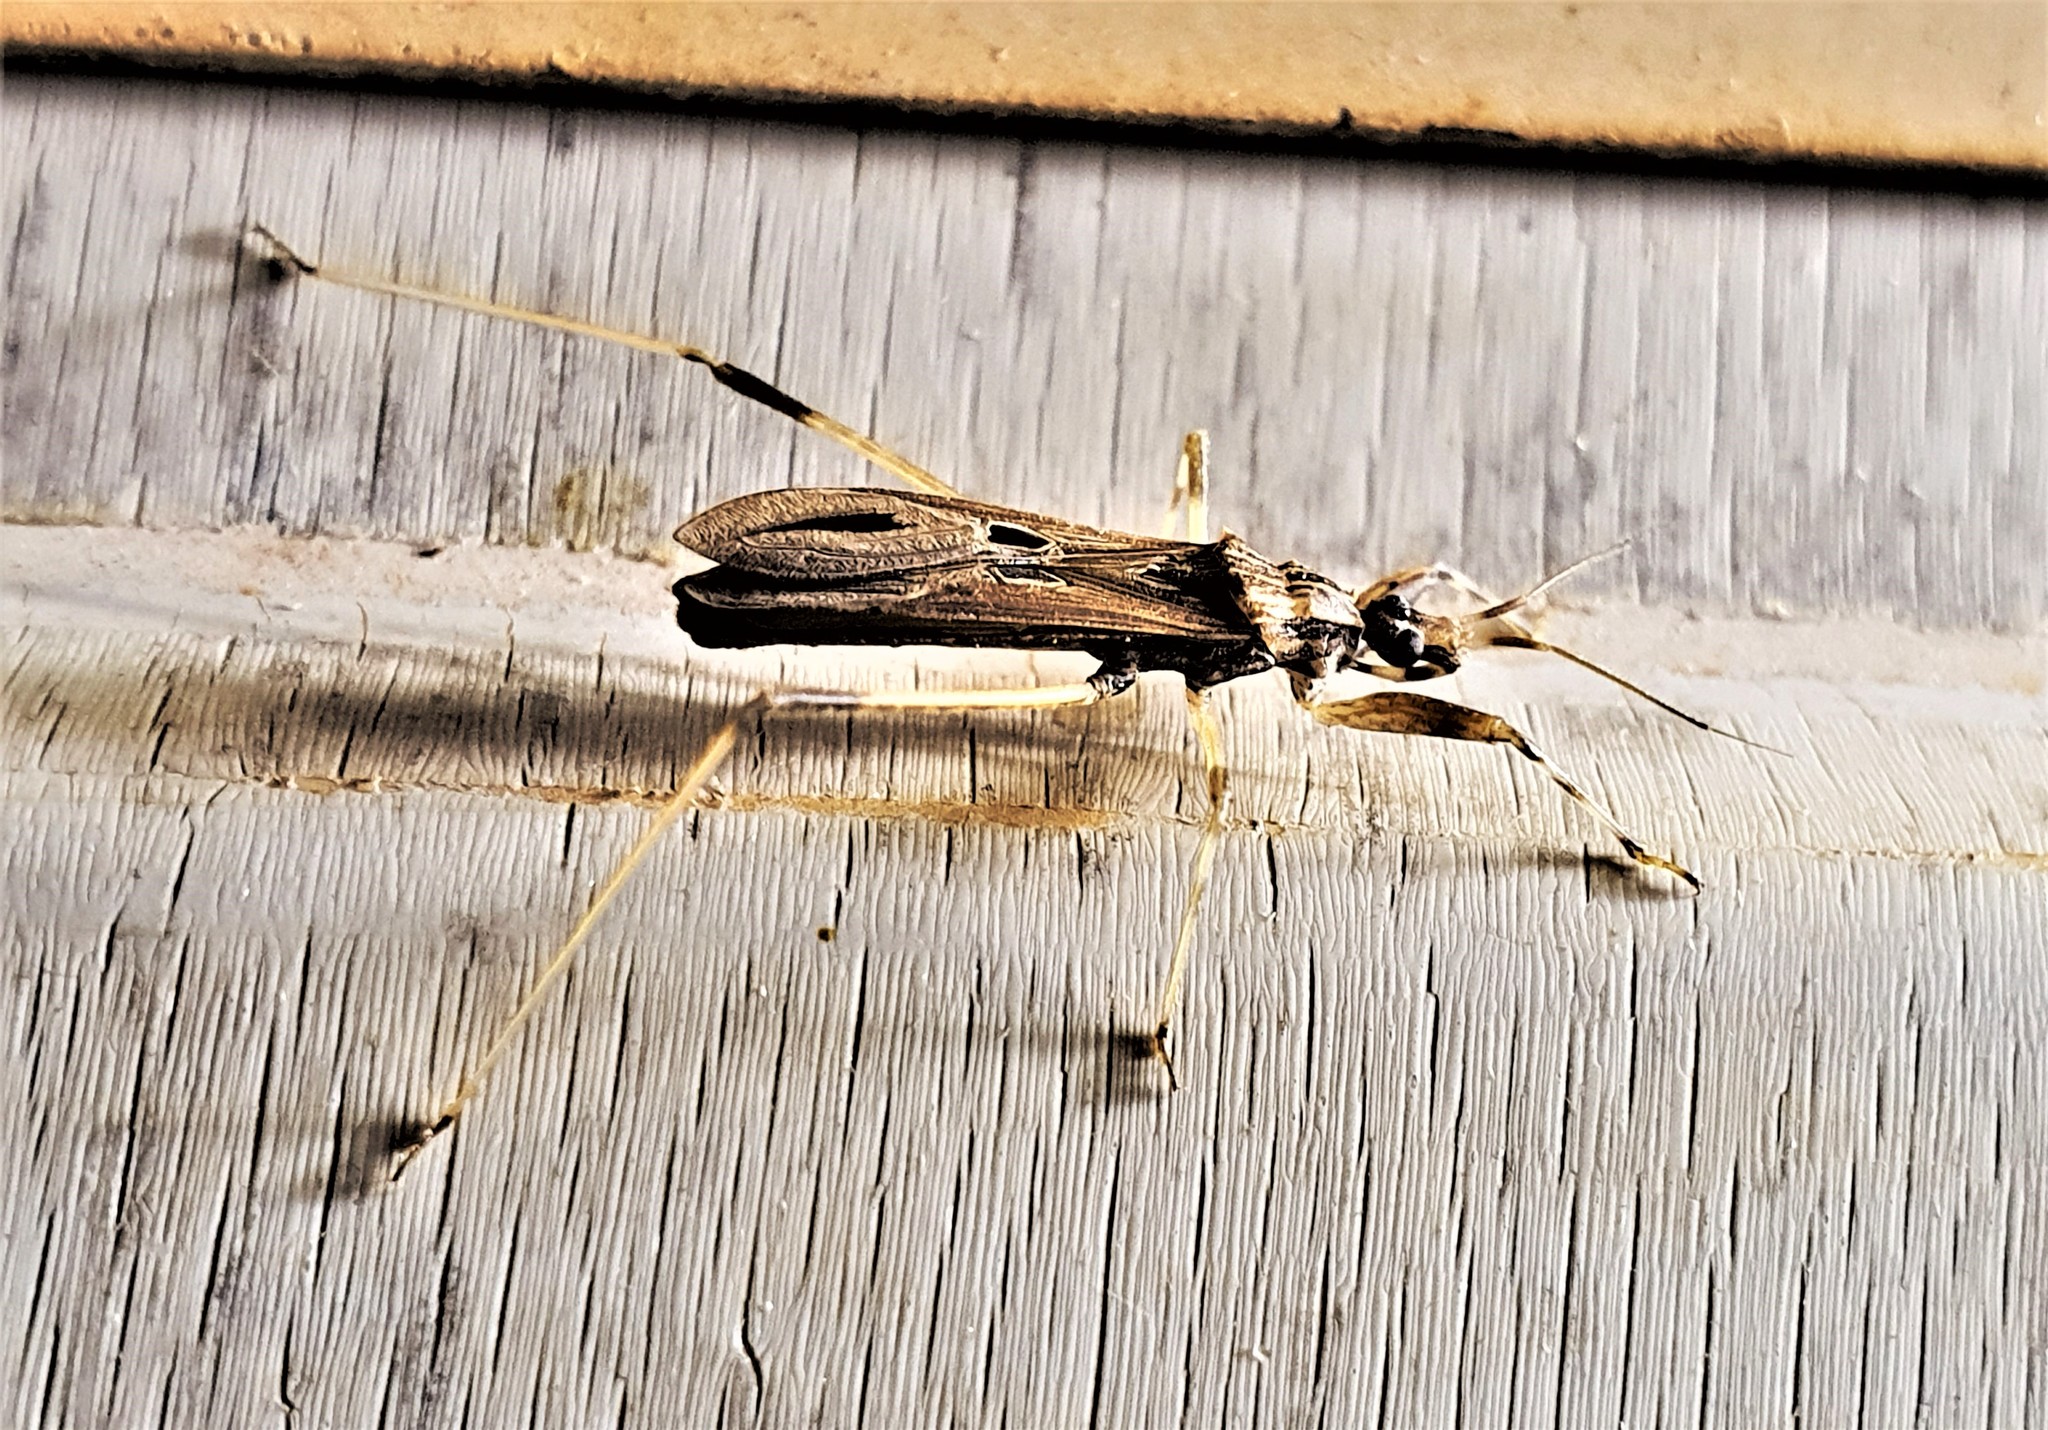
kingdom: Animalia
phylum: Arthropoda
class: Insecta
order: Hemiptera
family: Reduviidae
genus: Narvesus
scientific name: Narvesus minor
